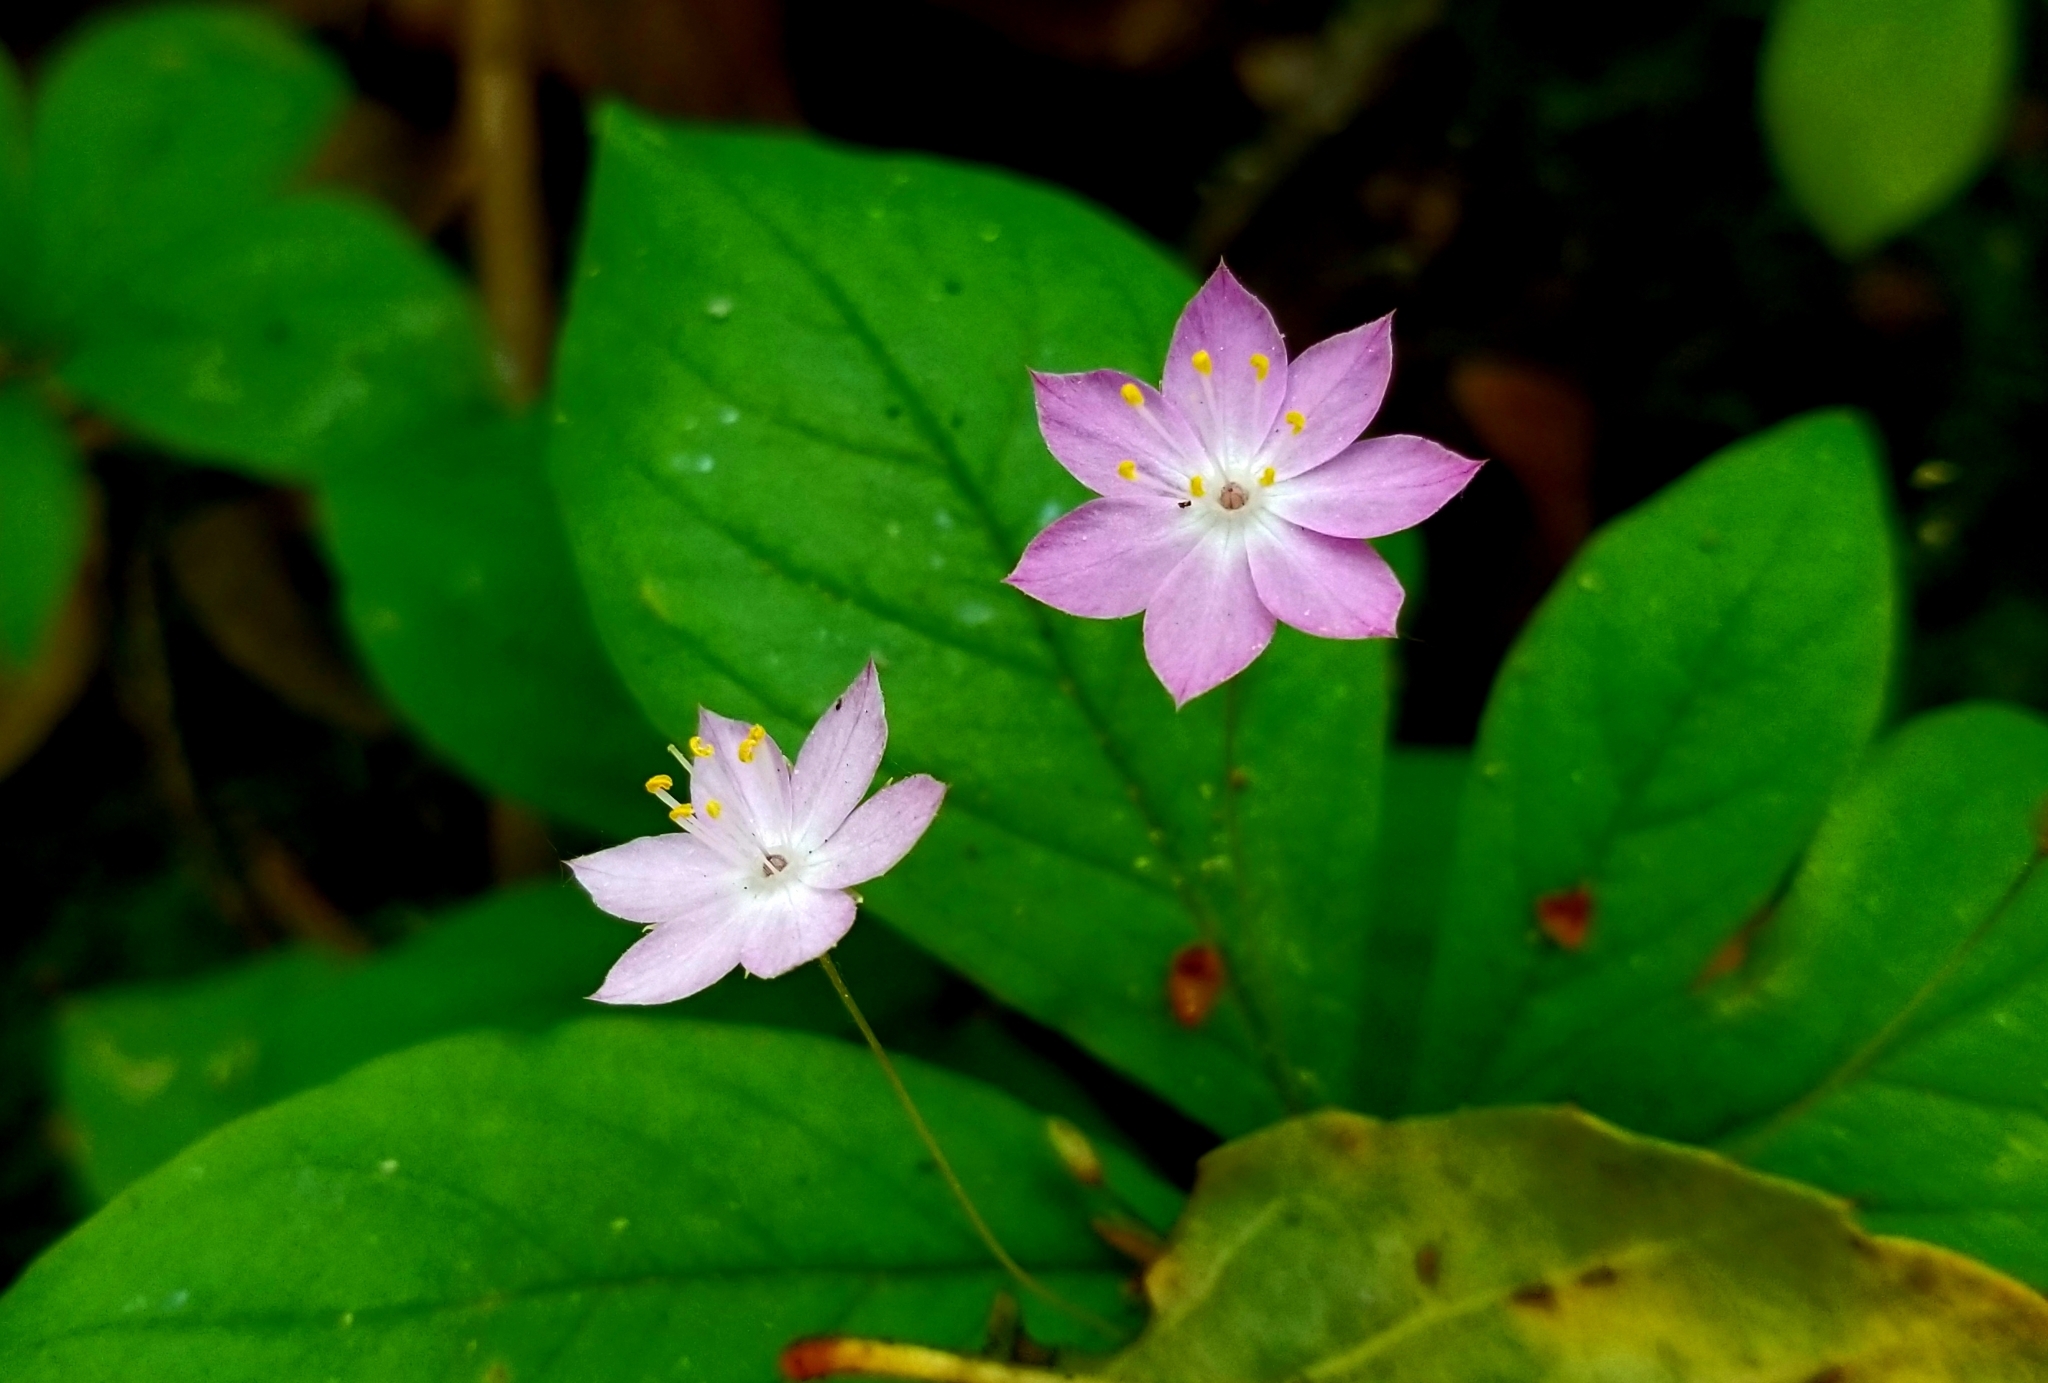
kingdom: Plantae
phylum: Tracheophyta
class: Magnoliopsida
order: Ericales
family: Primulaceae
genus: Lysimachia
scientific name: Lysimachia latifolia
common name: Pacific starflower
